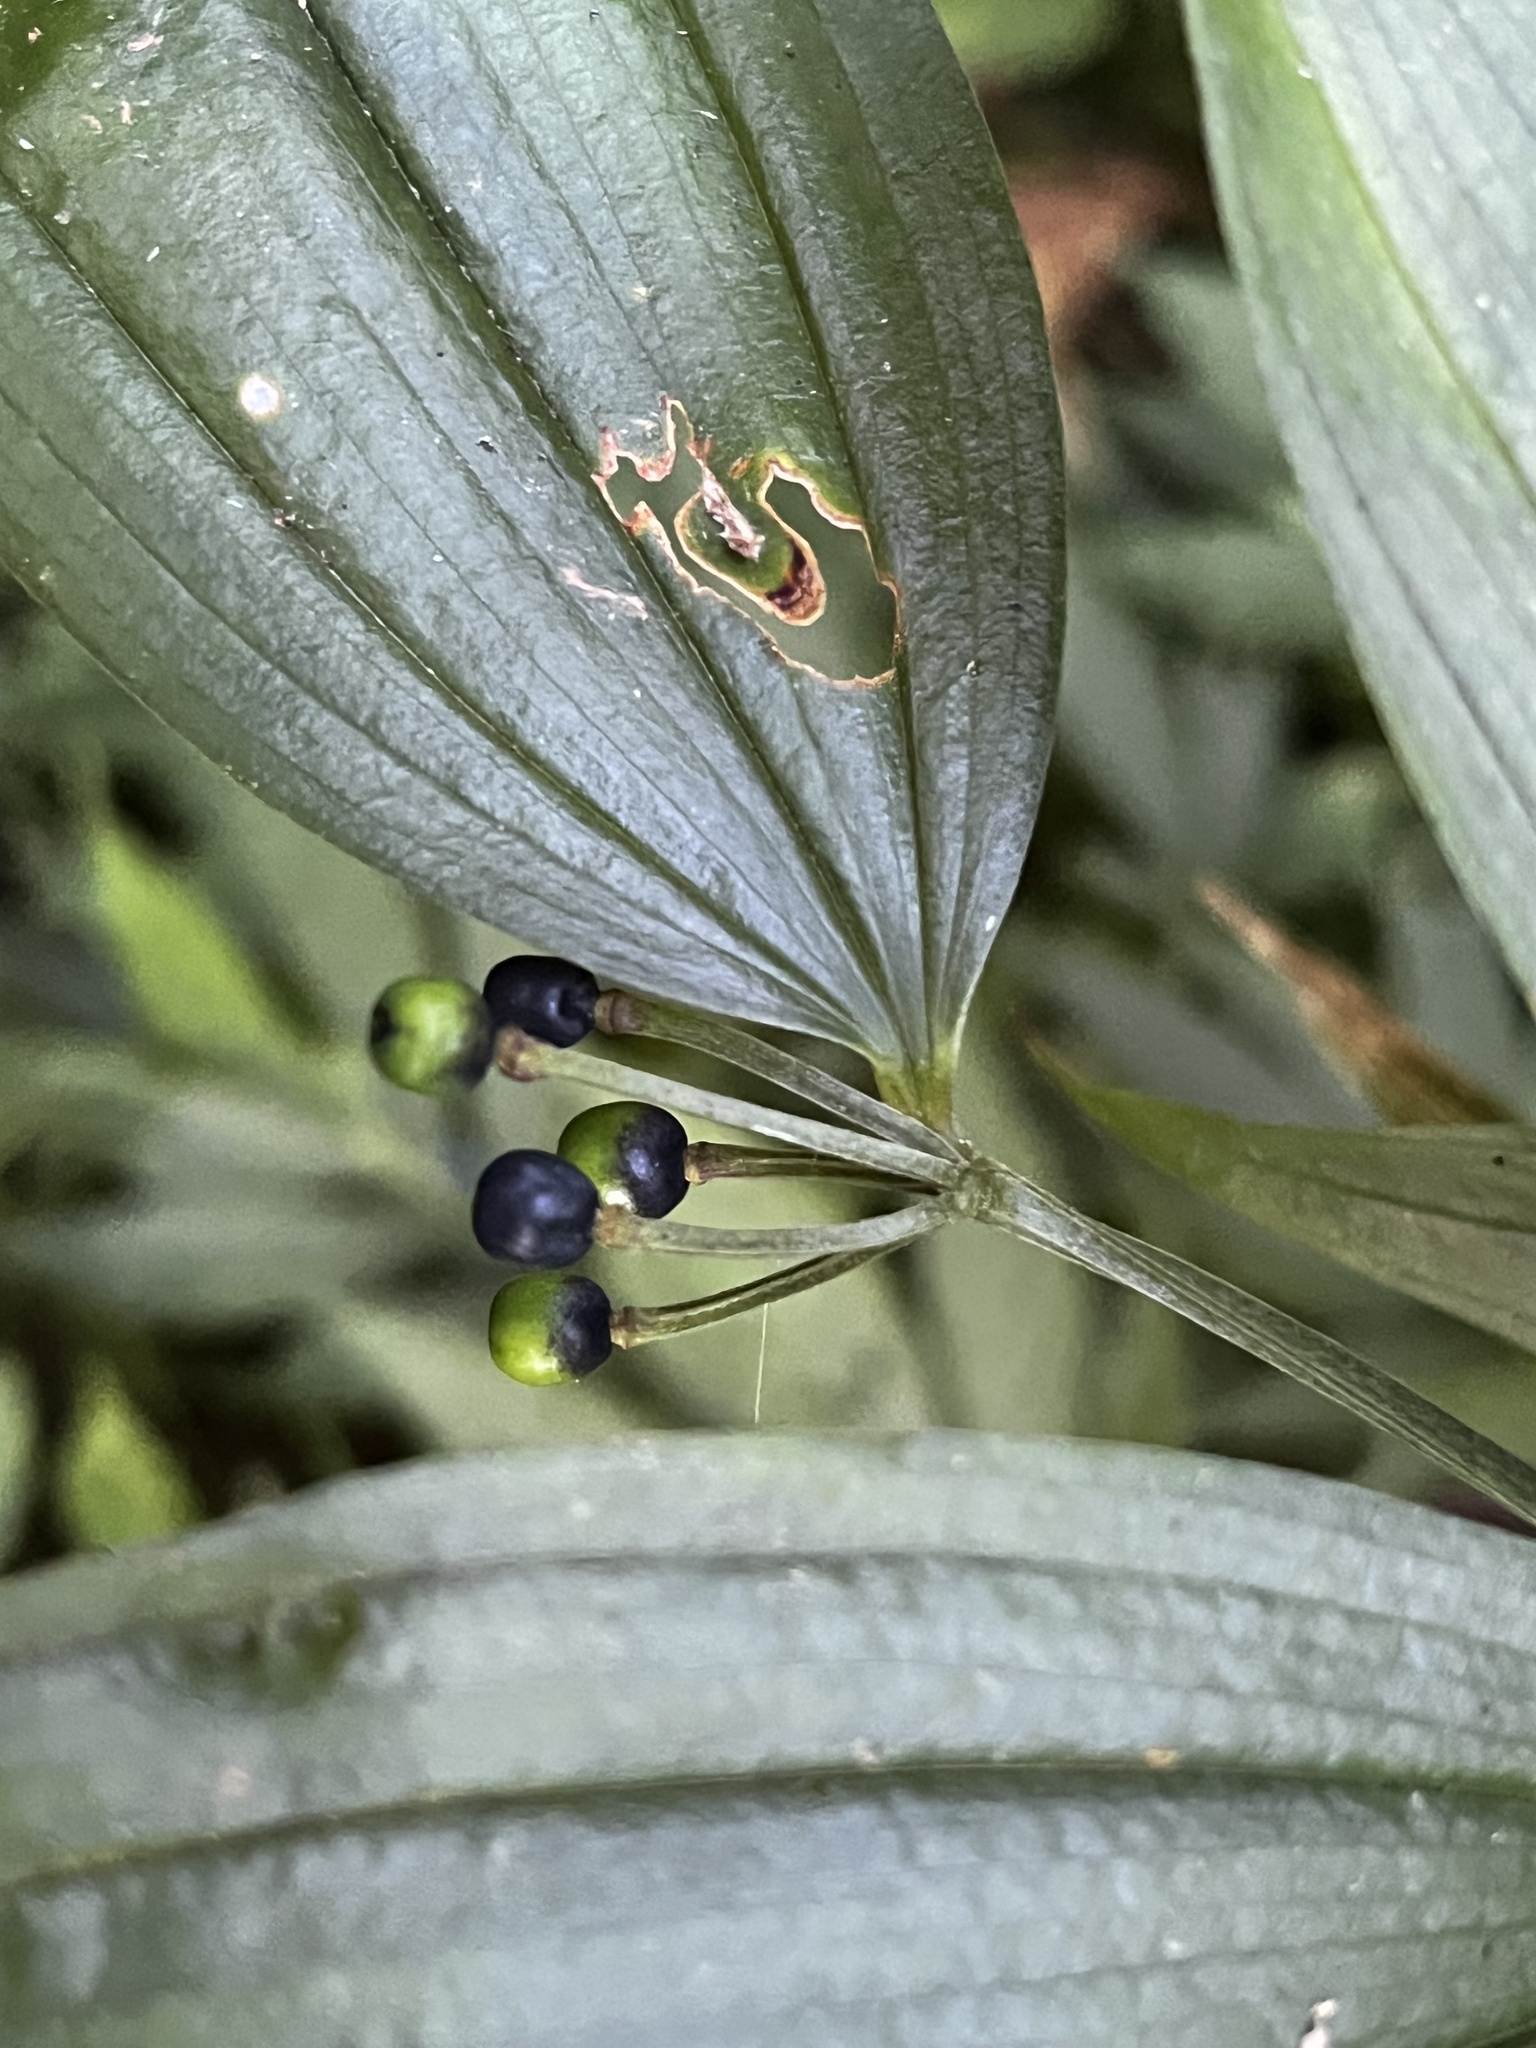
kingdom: Plantae
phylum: Tracheophyta
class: Liliopsida
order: Liliales
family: Colchicaceae
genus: Disporum
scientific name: Disporum kawakamii
